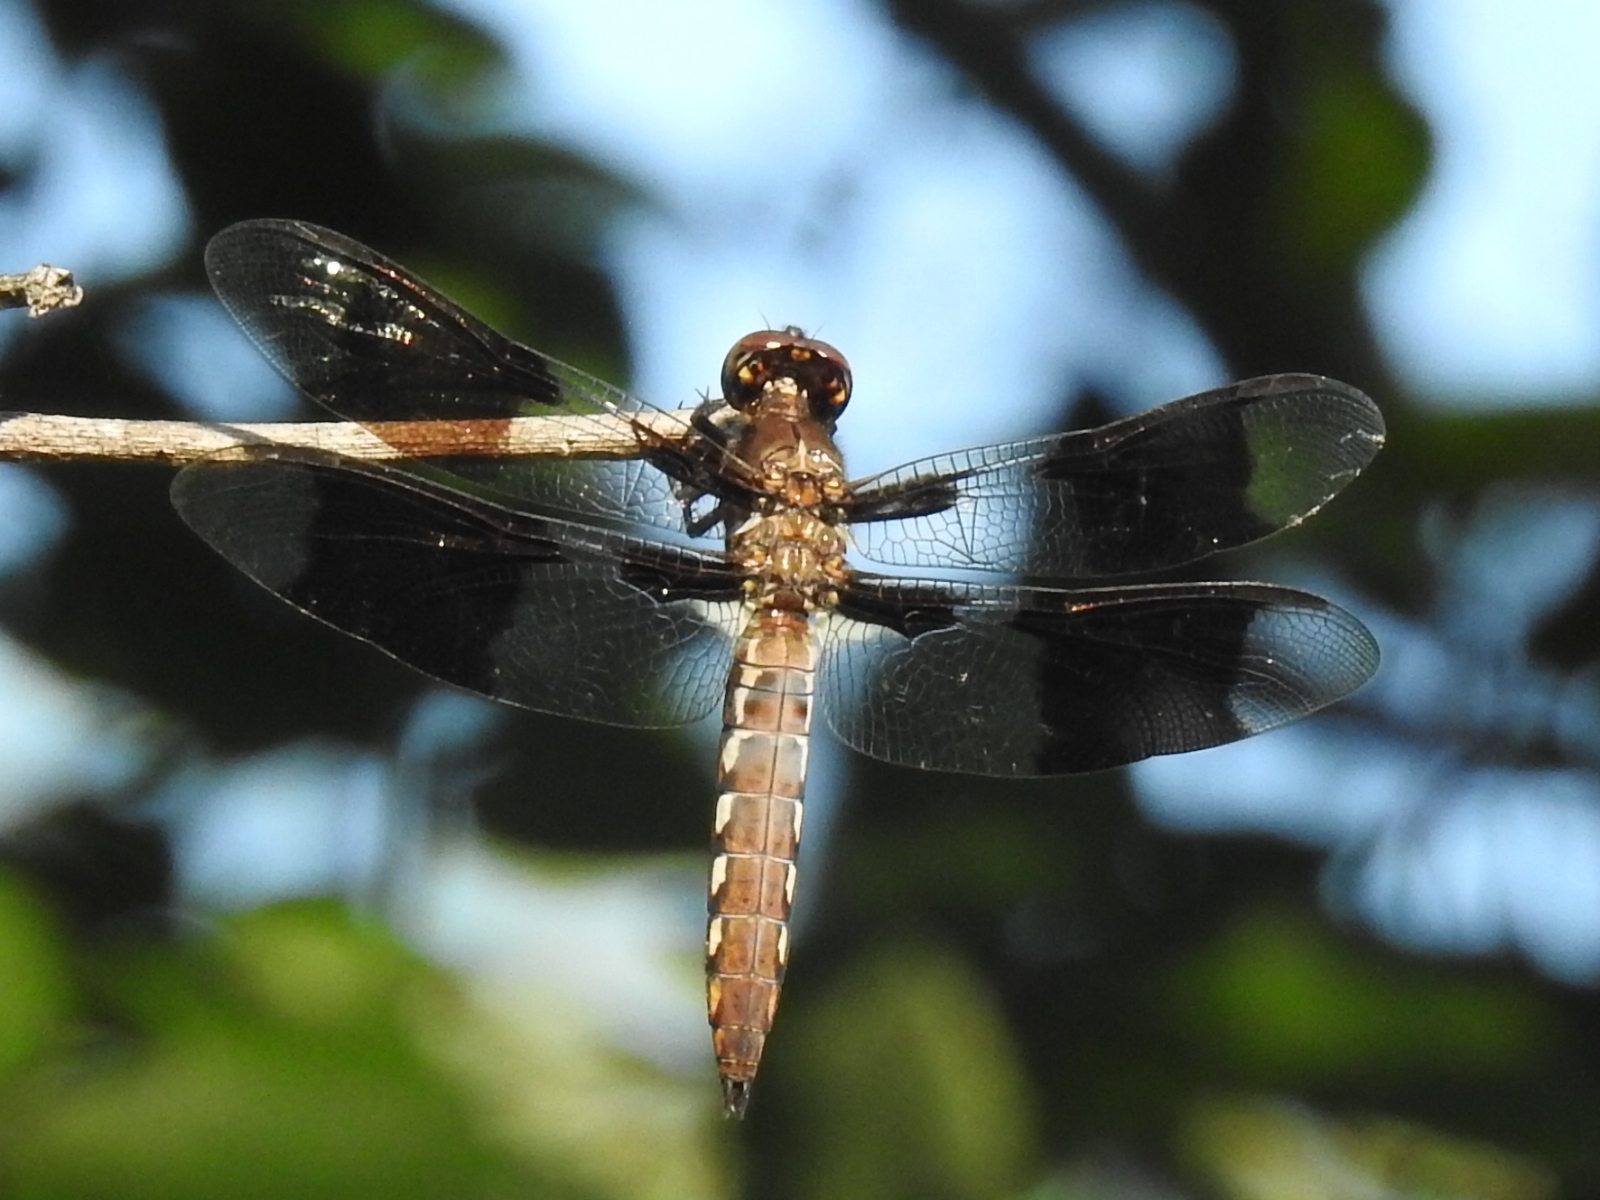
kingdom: Animalia
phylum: Arthropoda
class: Insecta
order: Odonata
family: Libellulidae
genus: Plathemis
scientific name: Plathemis lydia
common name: Common whitetail
